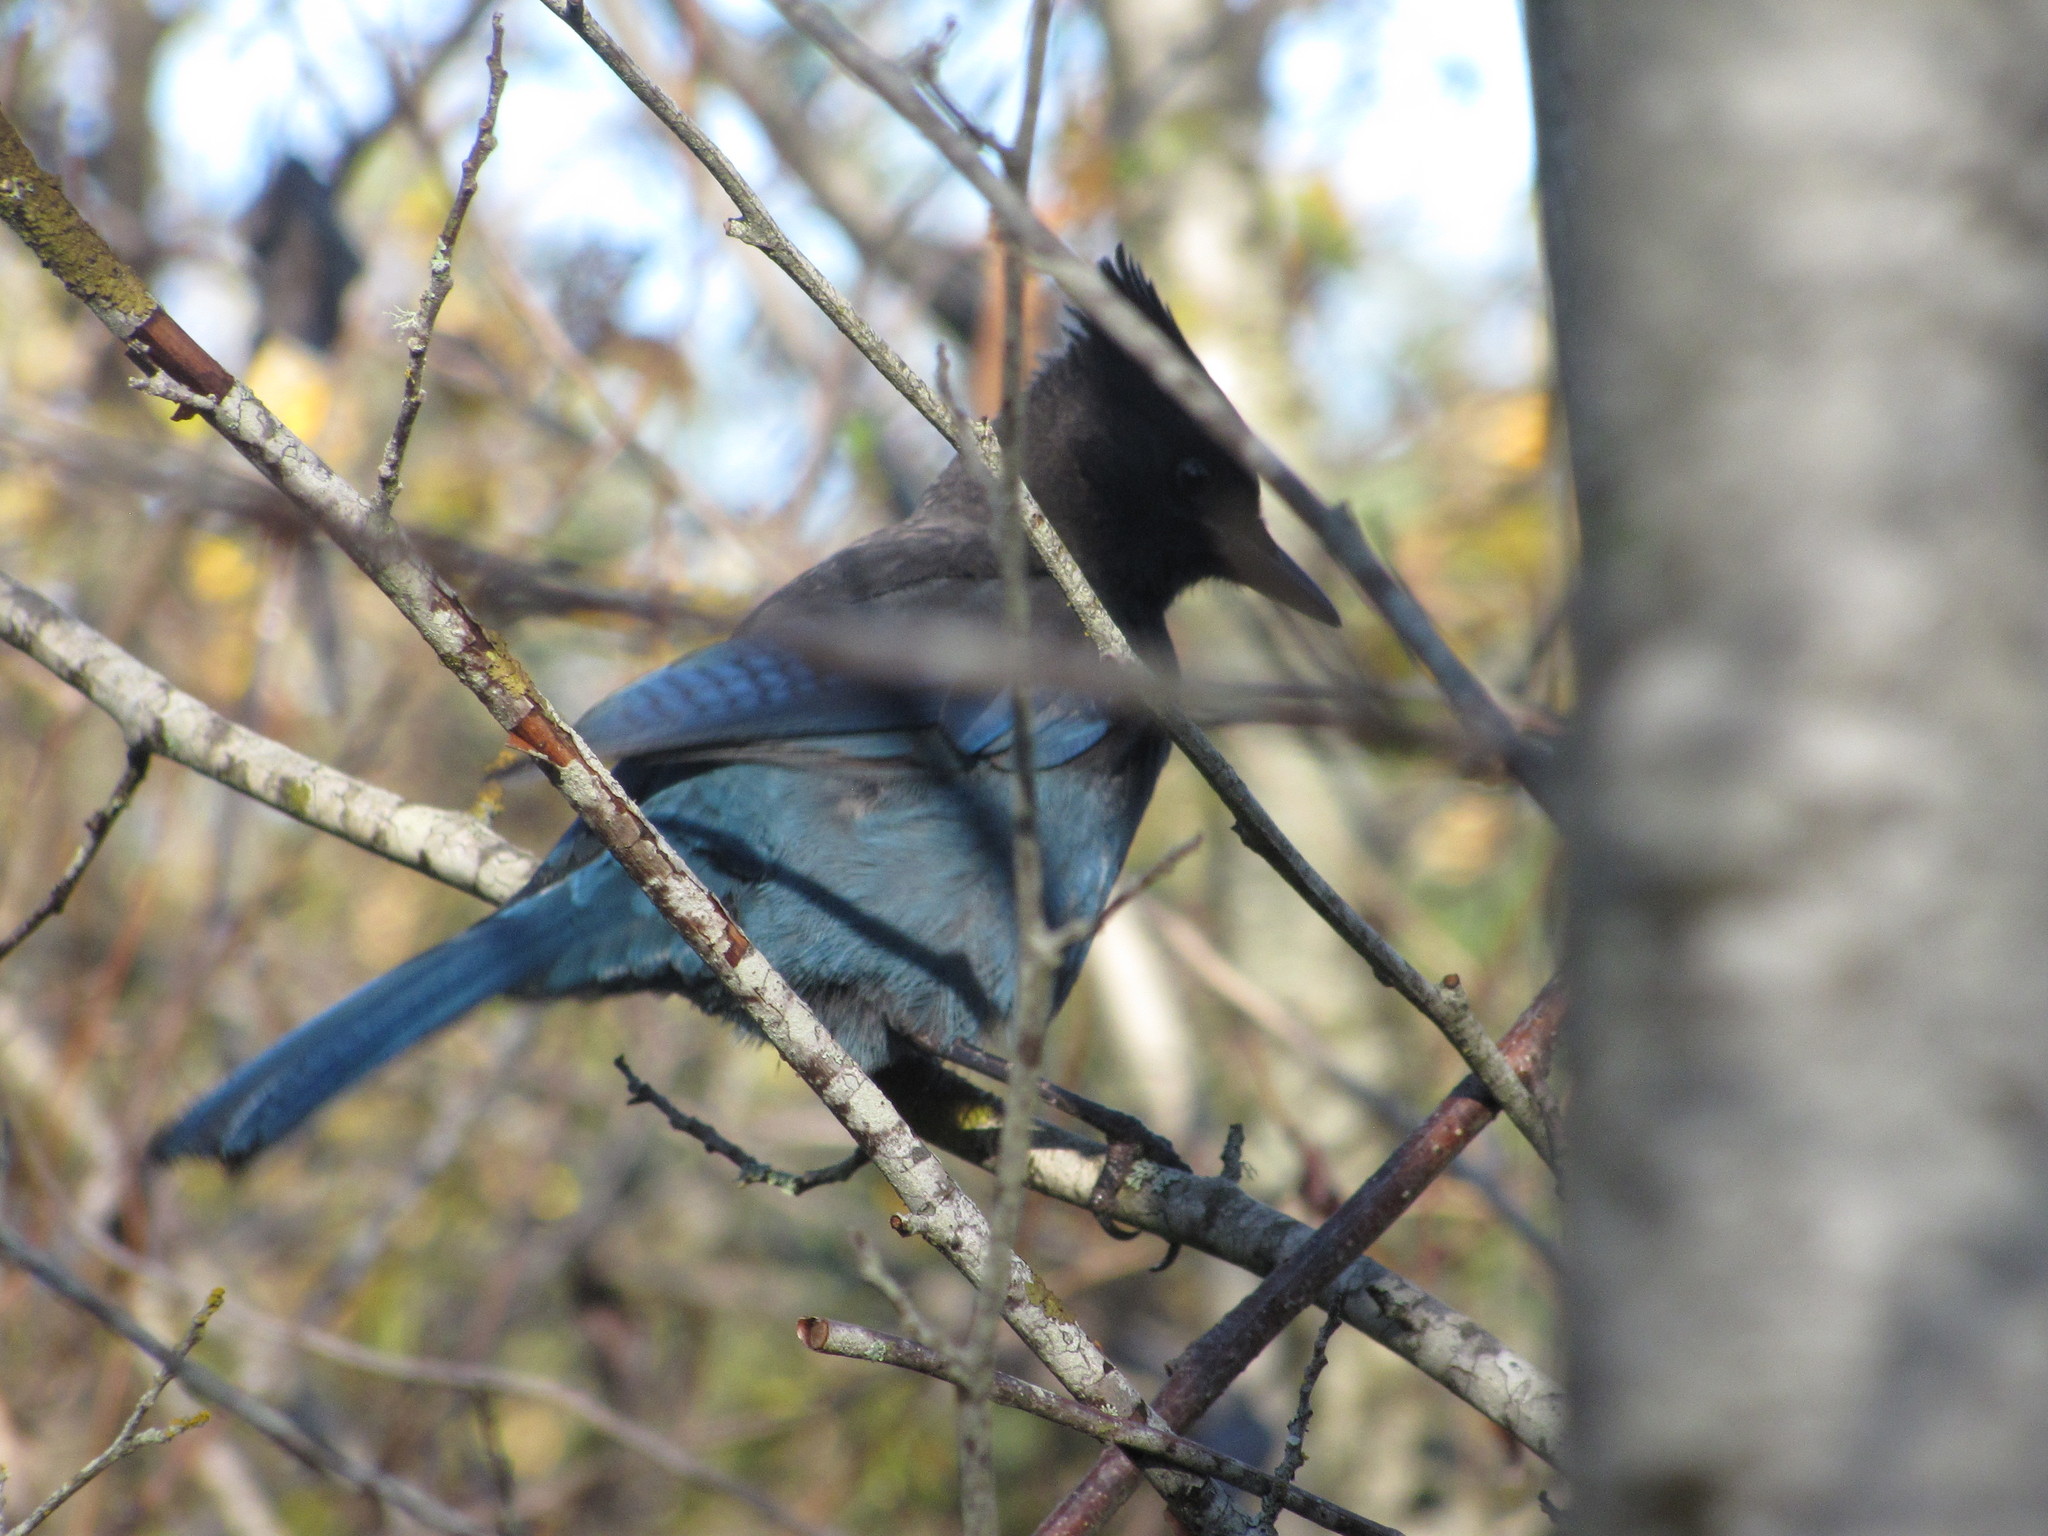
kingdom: Animalia
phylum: Chordata
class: Aves
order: Passeriformes
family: Corvidae
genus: Cyanocitta
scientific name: Cyanocitta stelleri
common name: Steller's jay
